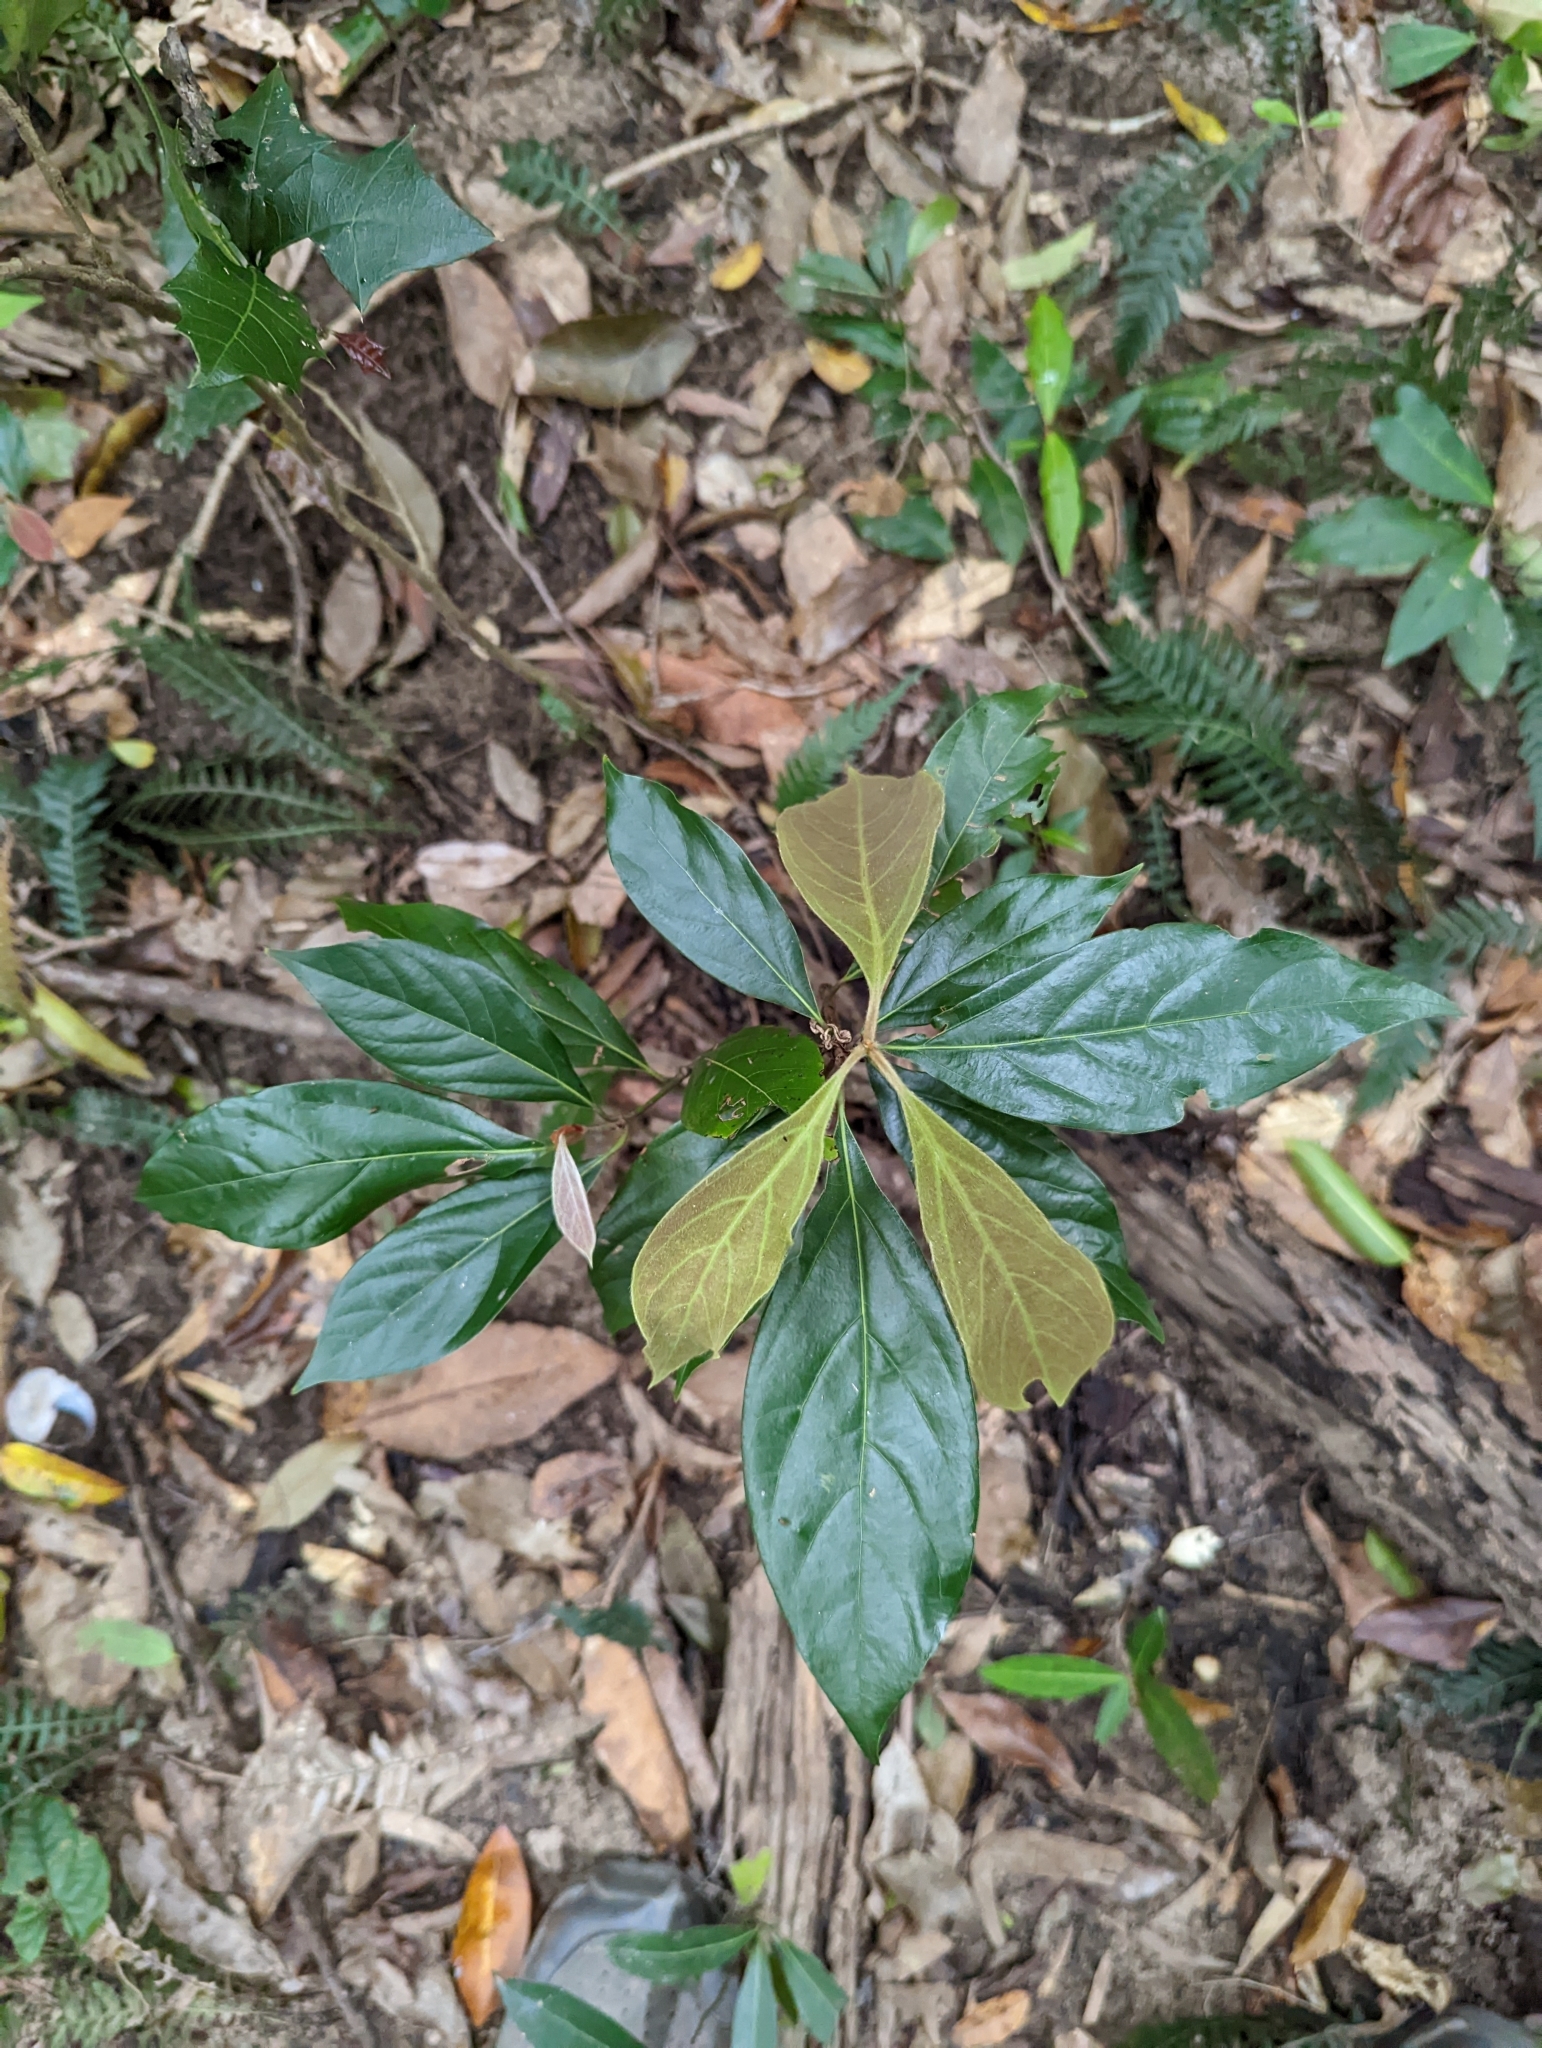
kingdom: Plantae
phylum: Tracheophyta
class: Magnoliopsida
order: Laurales
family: Lauraceae
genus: Neolitsea
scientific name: Neolitsea dealbata
